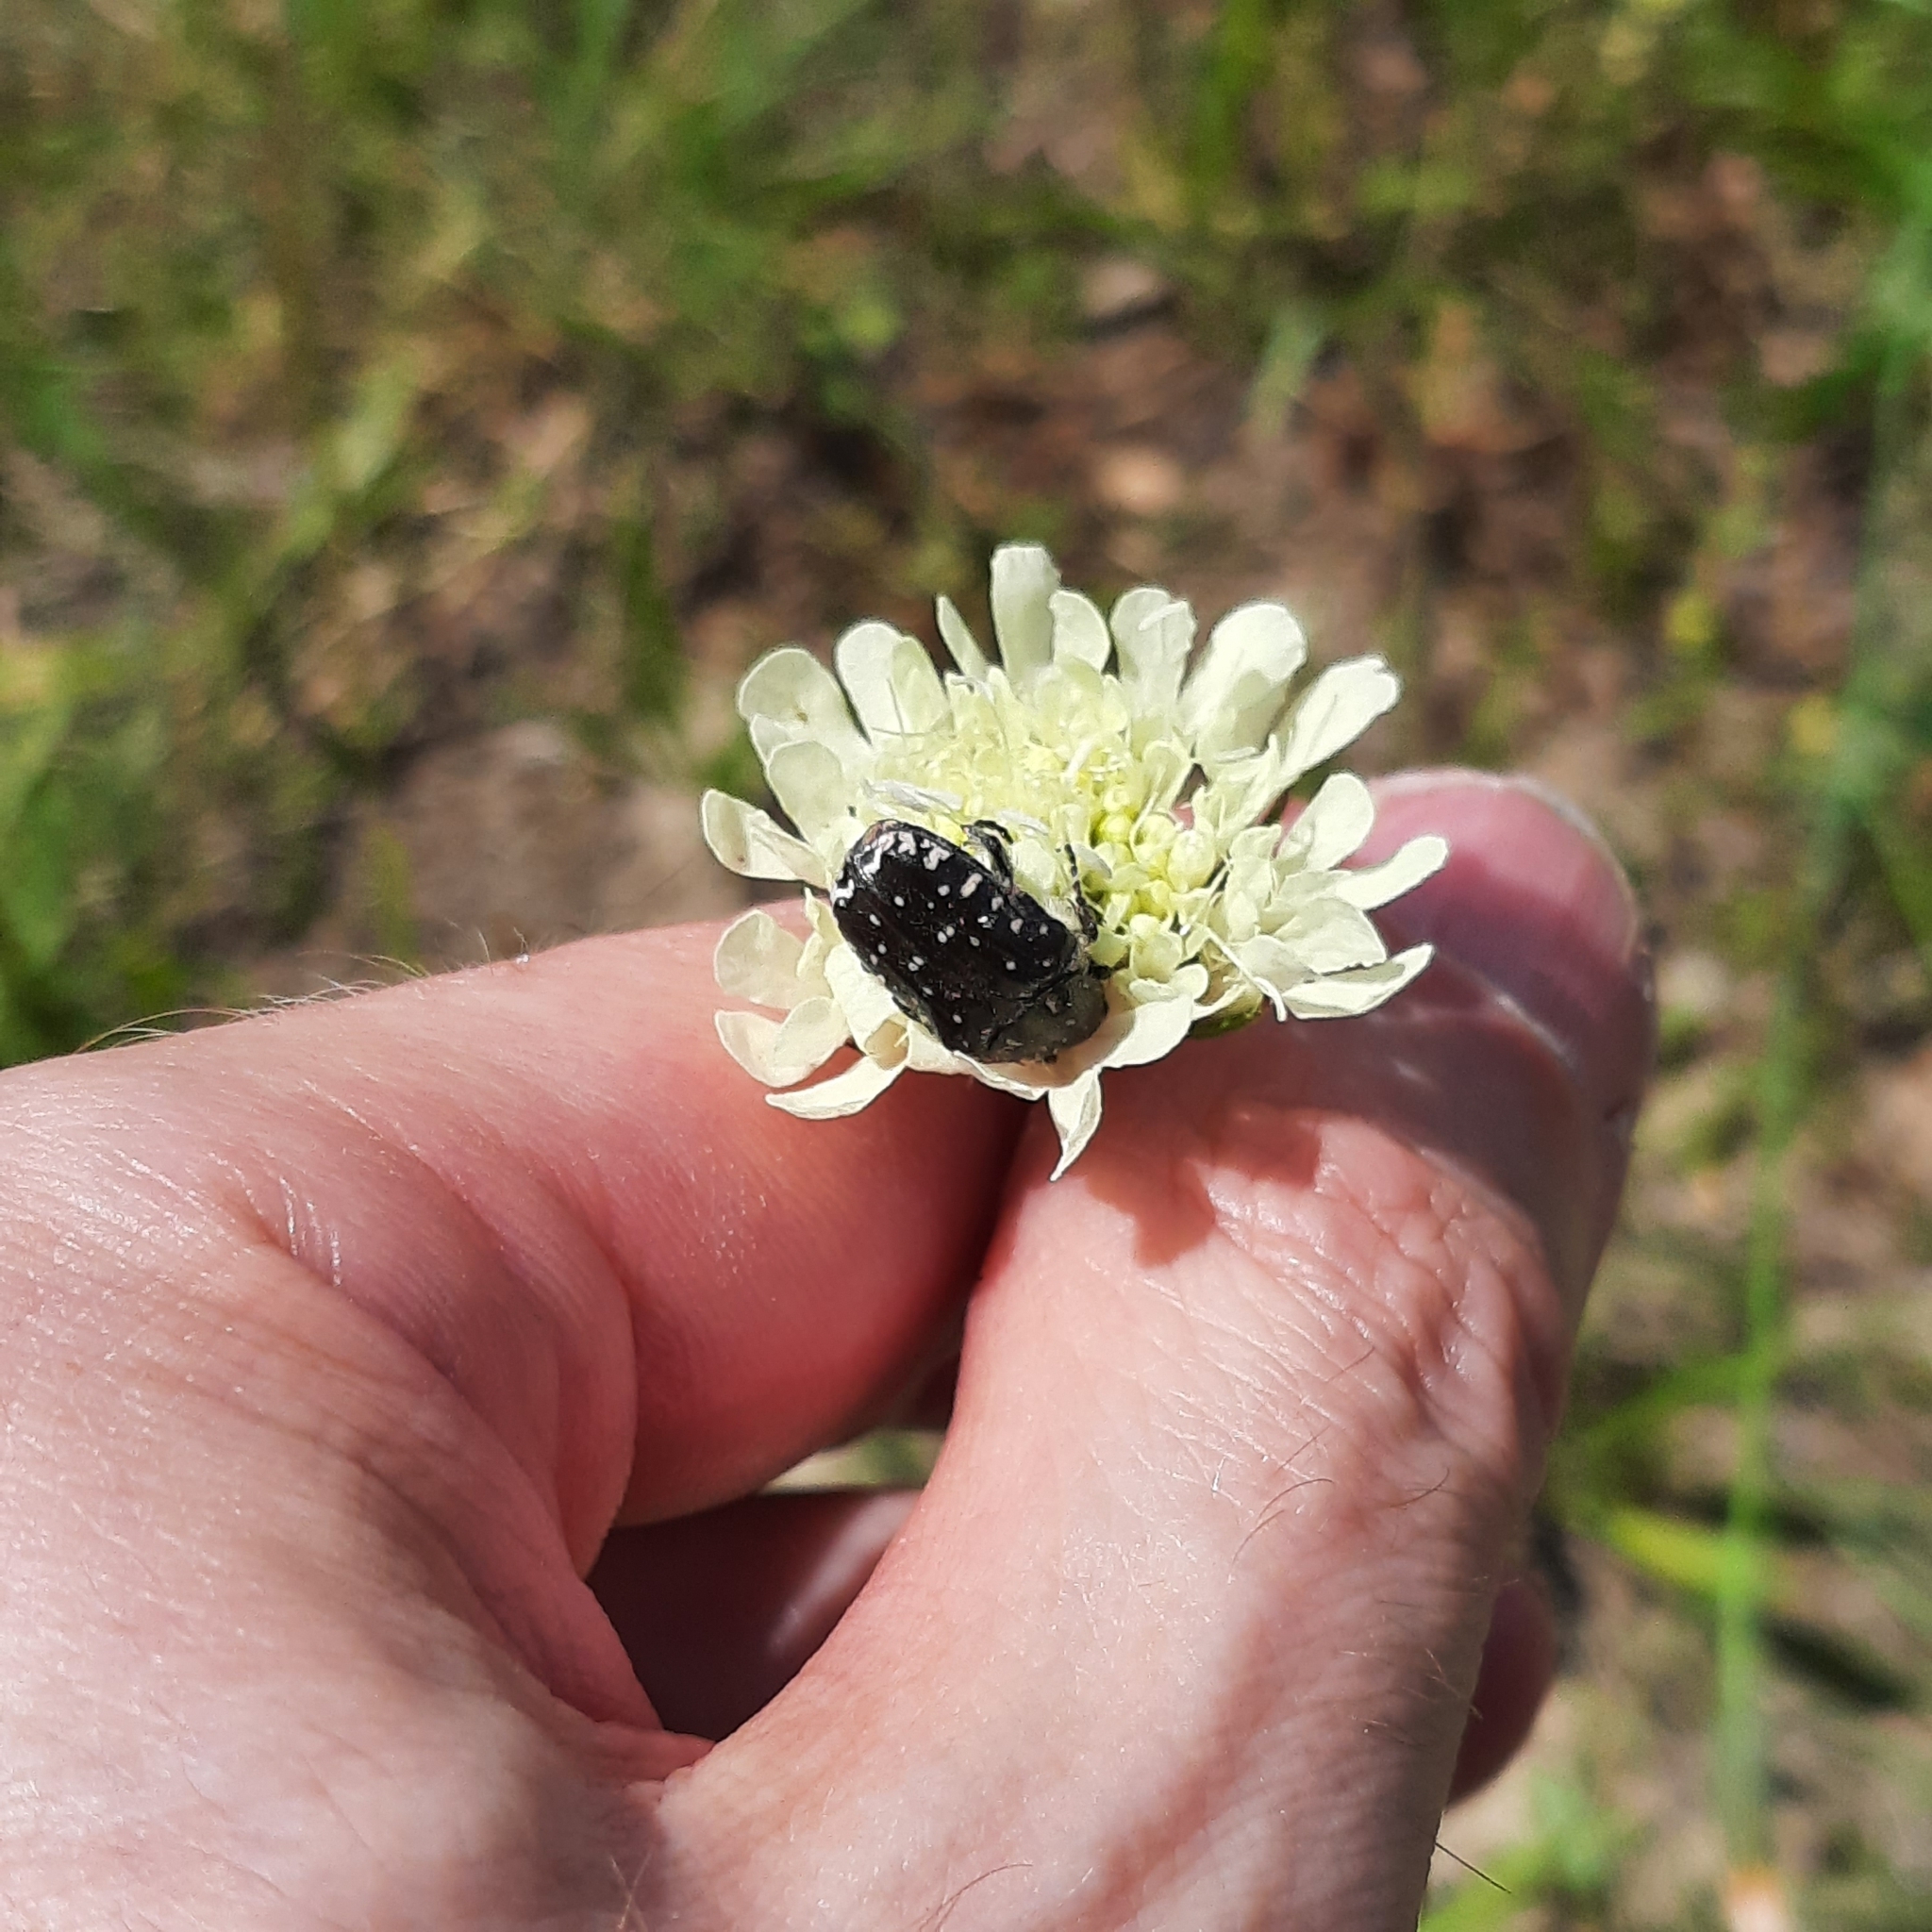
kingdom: Animalia
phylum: Arthropoda
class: Insecta
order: Coleoptera
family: Scarabaeidae
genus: Oxythyrea
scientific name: Oxythyrea funesta
